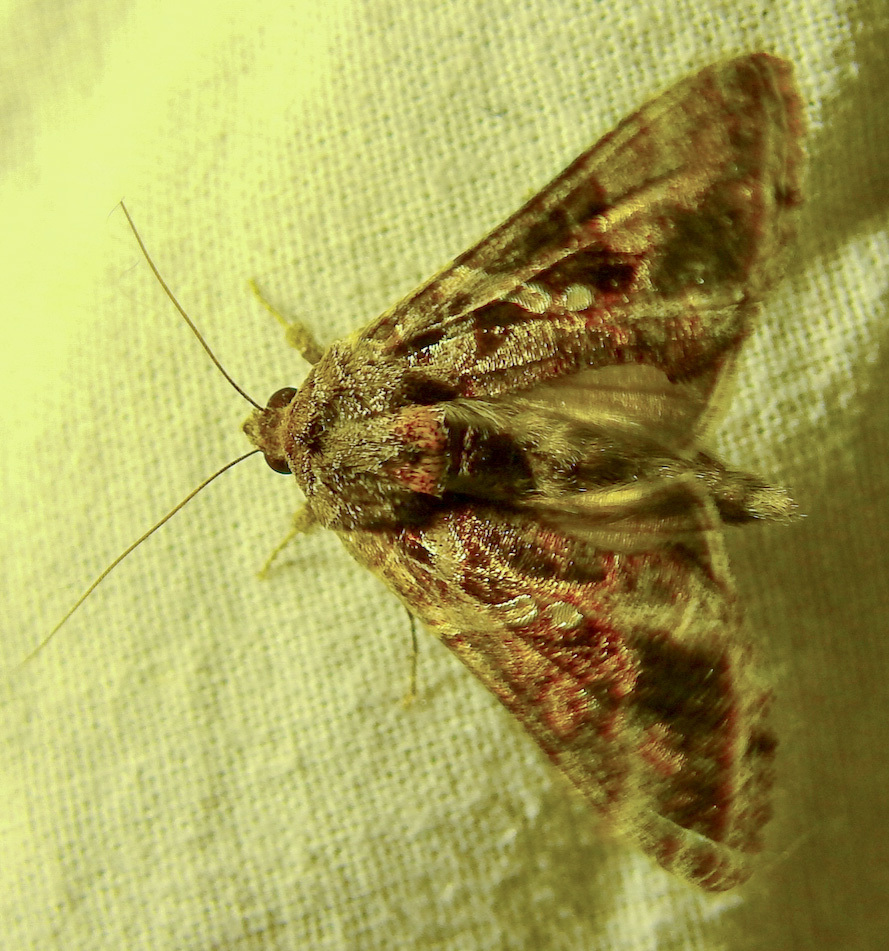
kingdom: Animalia
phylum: Arthropoda
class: Insecta
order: Lepidoptera
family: Noctuidae
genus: Chrysodeixis
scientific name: Chrysodeixis includens
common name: Cutworm moth
